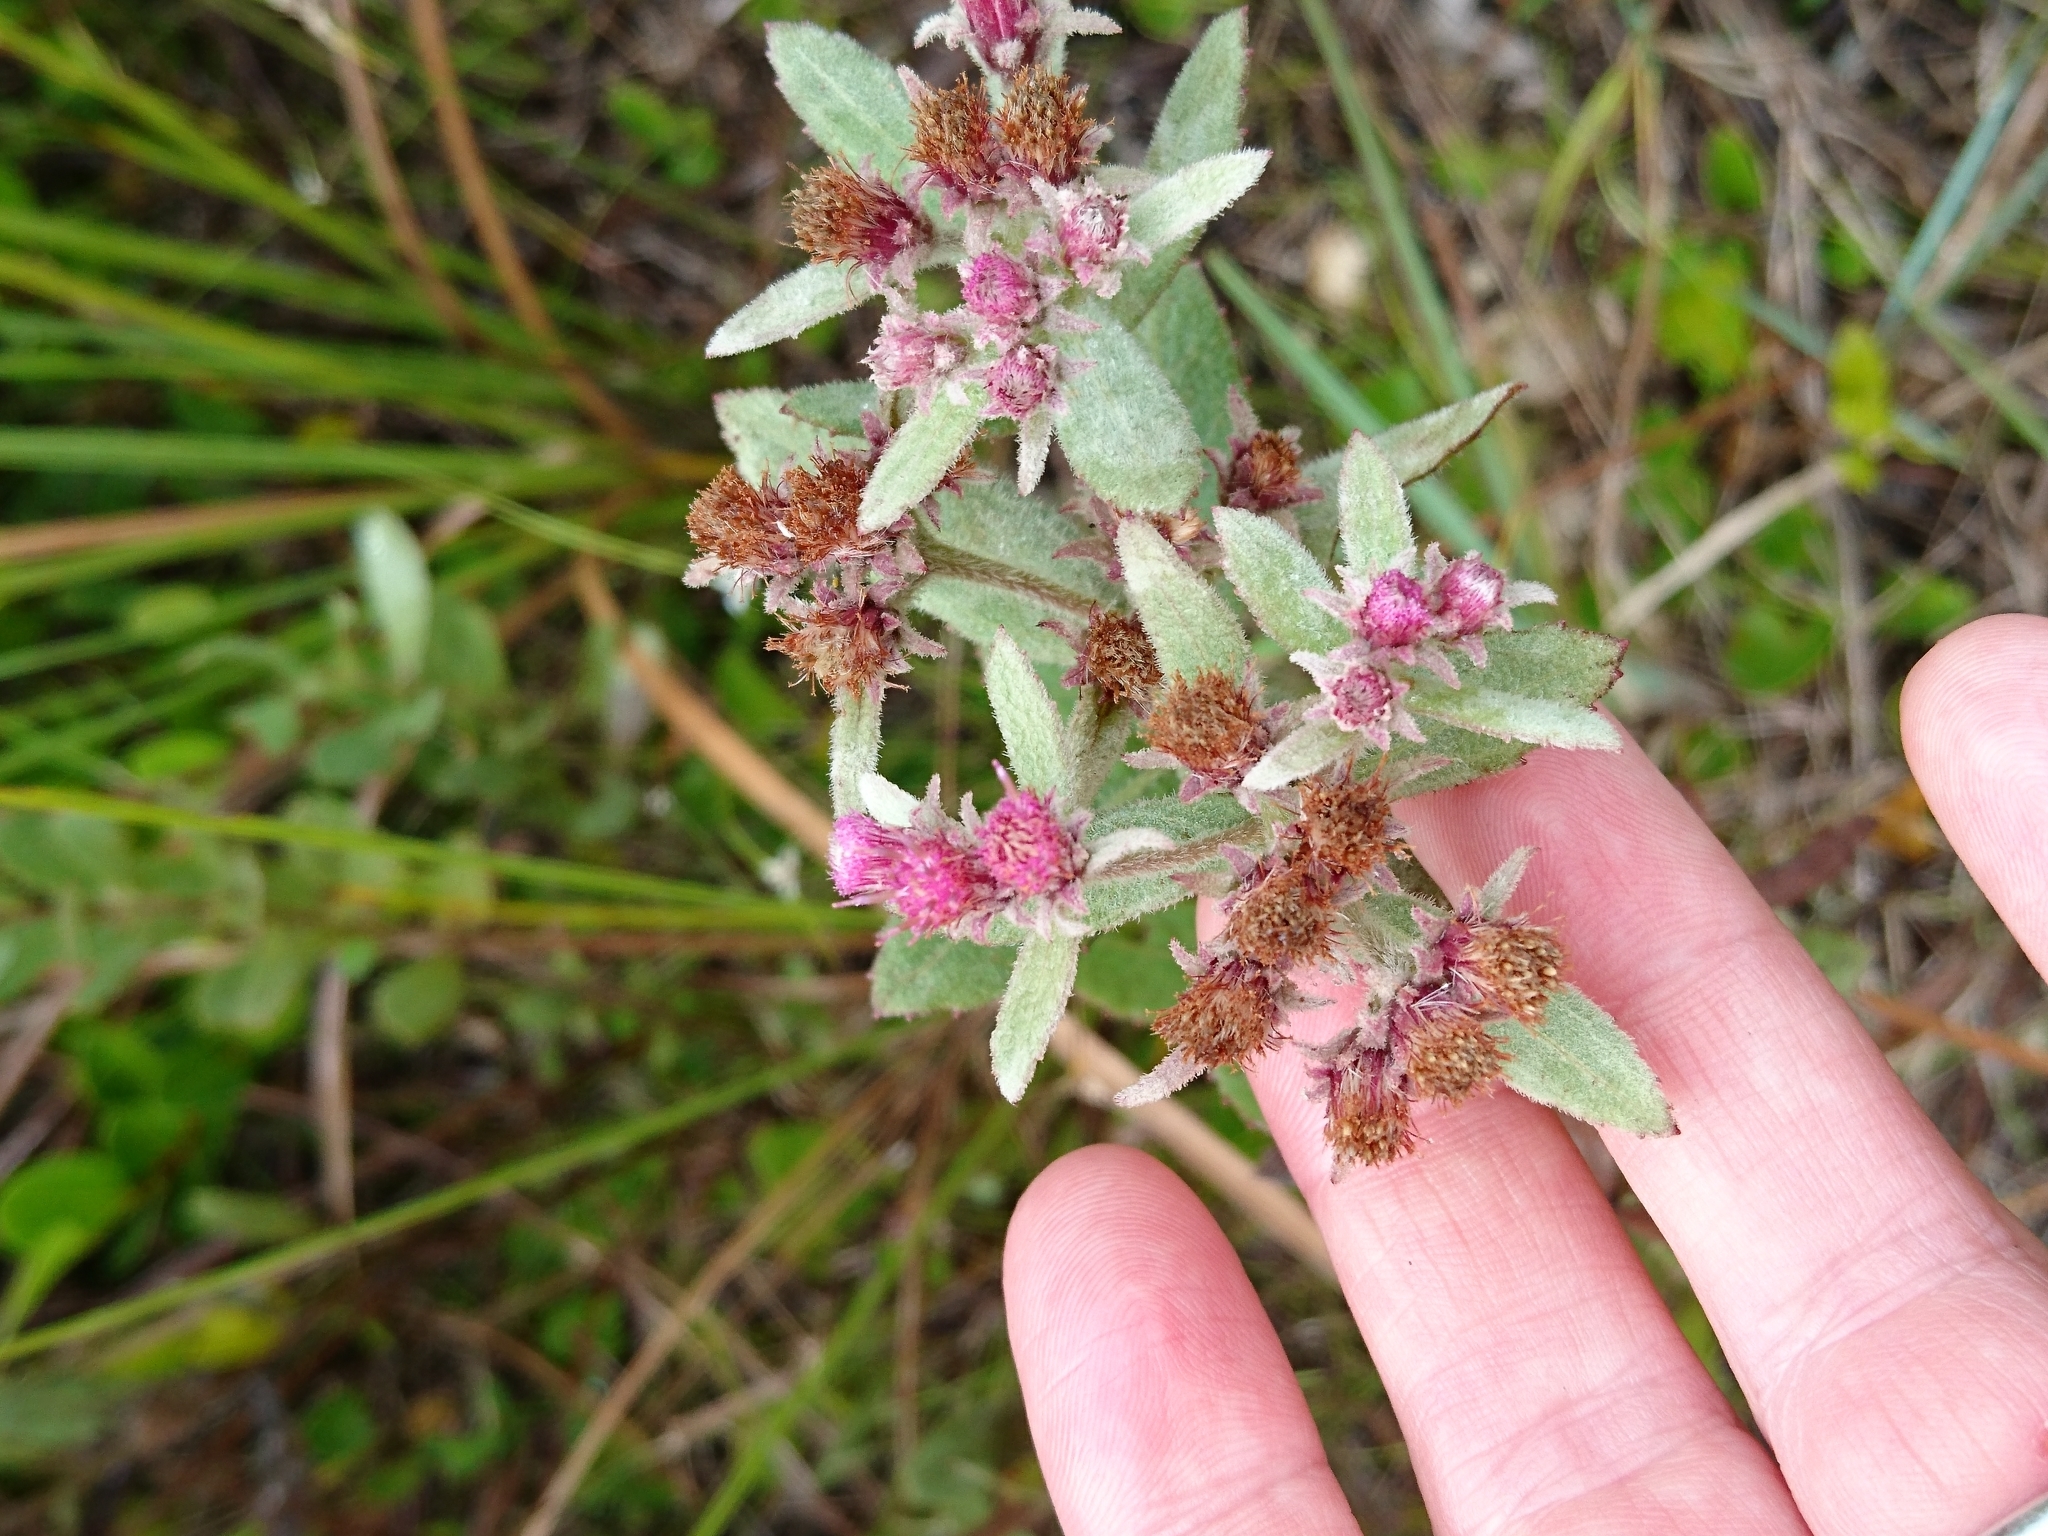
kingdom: Plantae
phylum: Tracheophyta
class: Magnoliopsida
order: Asterales
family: Asteraceae
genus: Pluchea
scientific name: Pluchea baccharis
